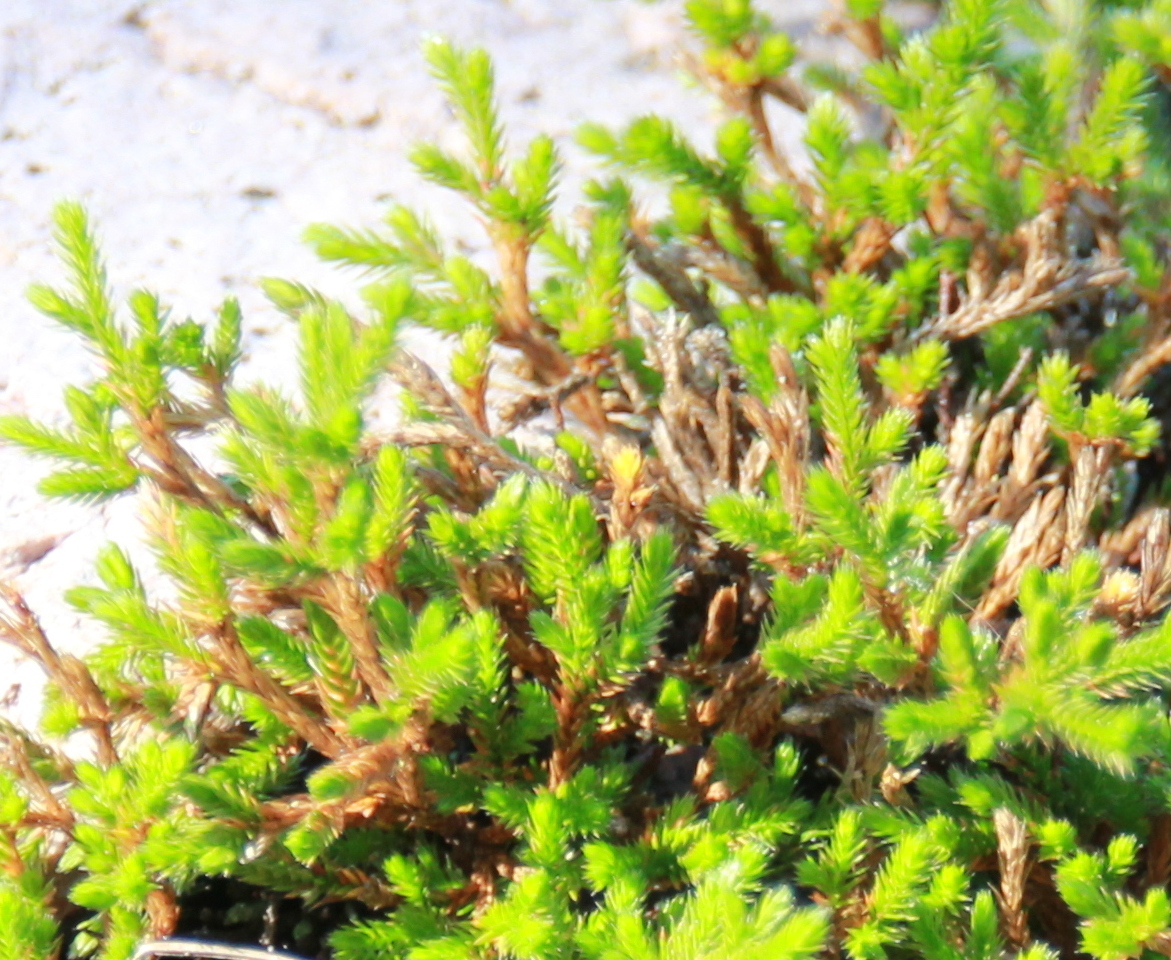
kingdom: Plantae
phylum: Tracheophyta
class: Lycopodiopsida
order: Selaginellales
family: Selaginellaceae
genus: Selaginella
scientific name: Selaginella bigelovii
